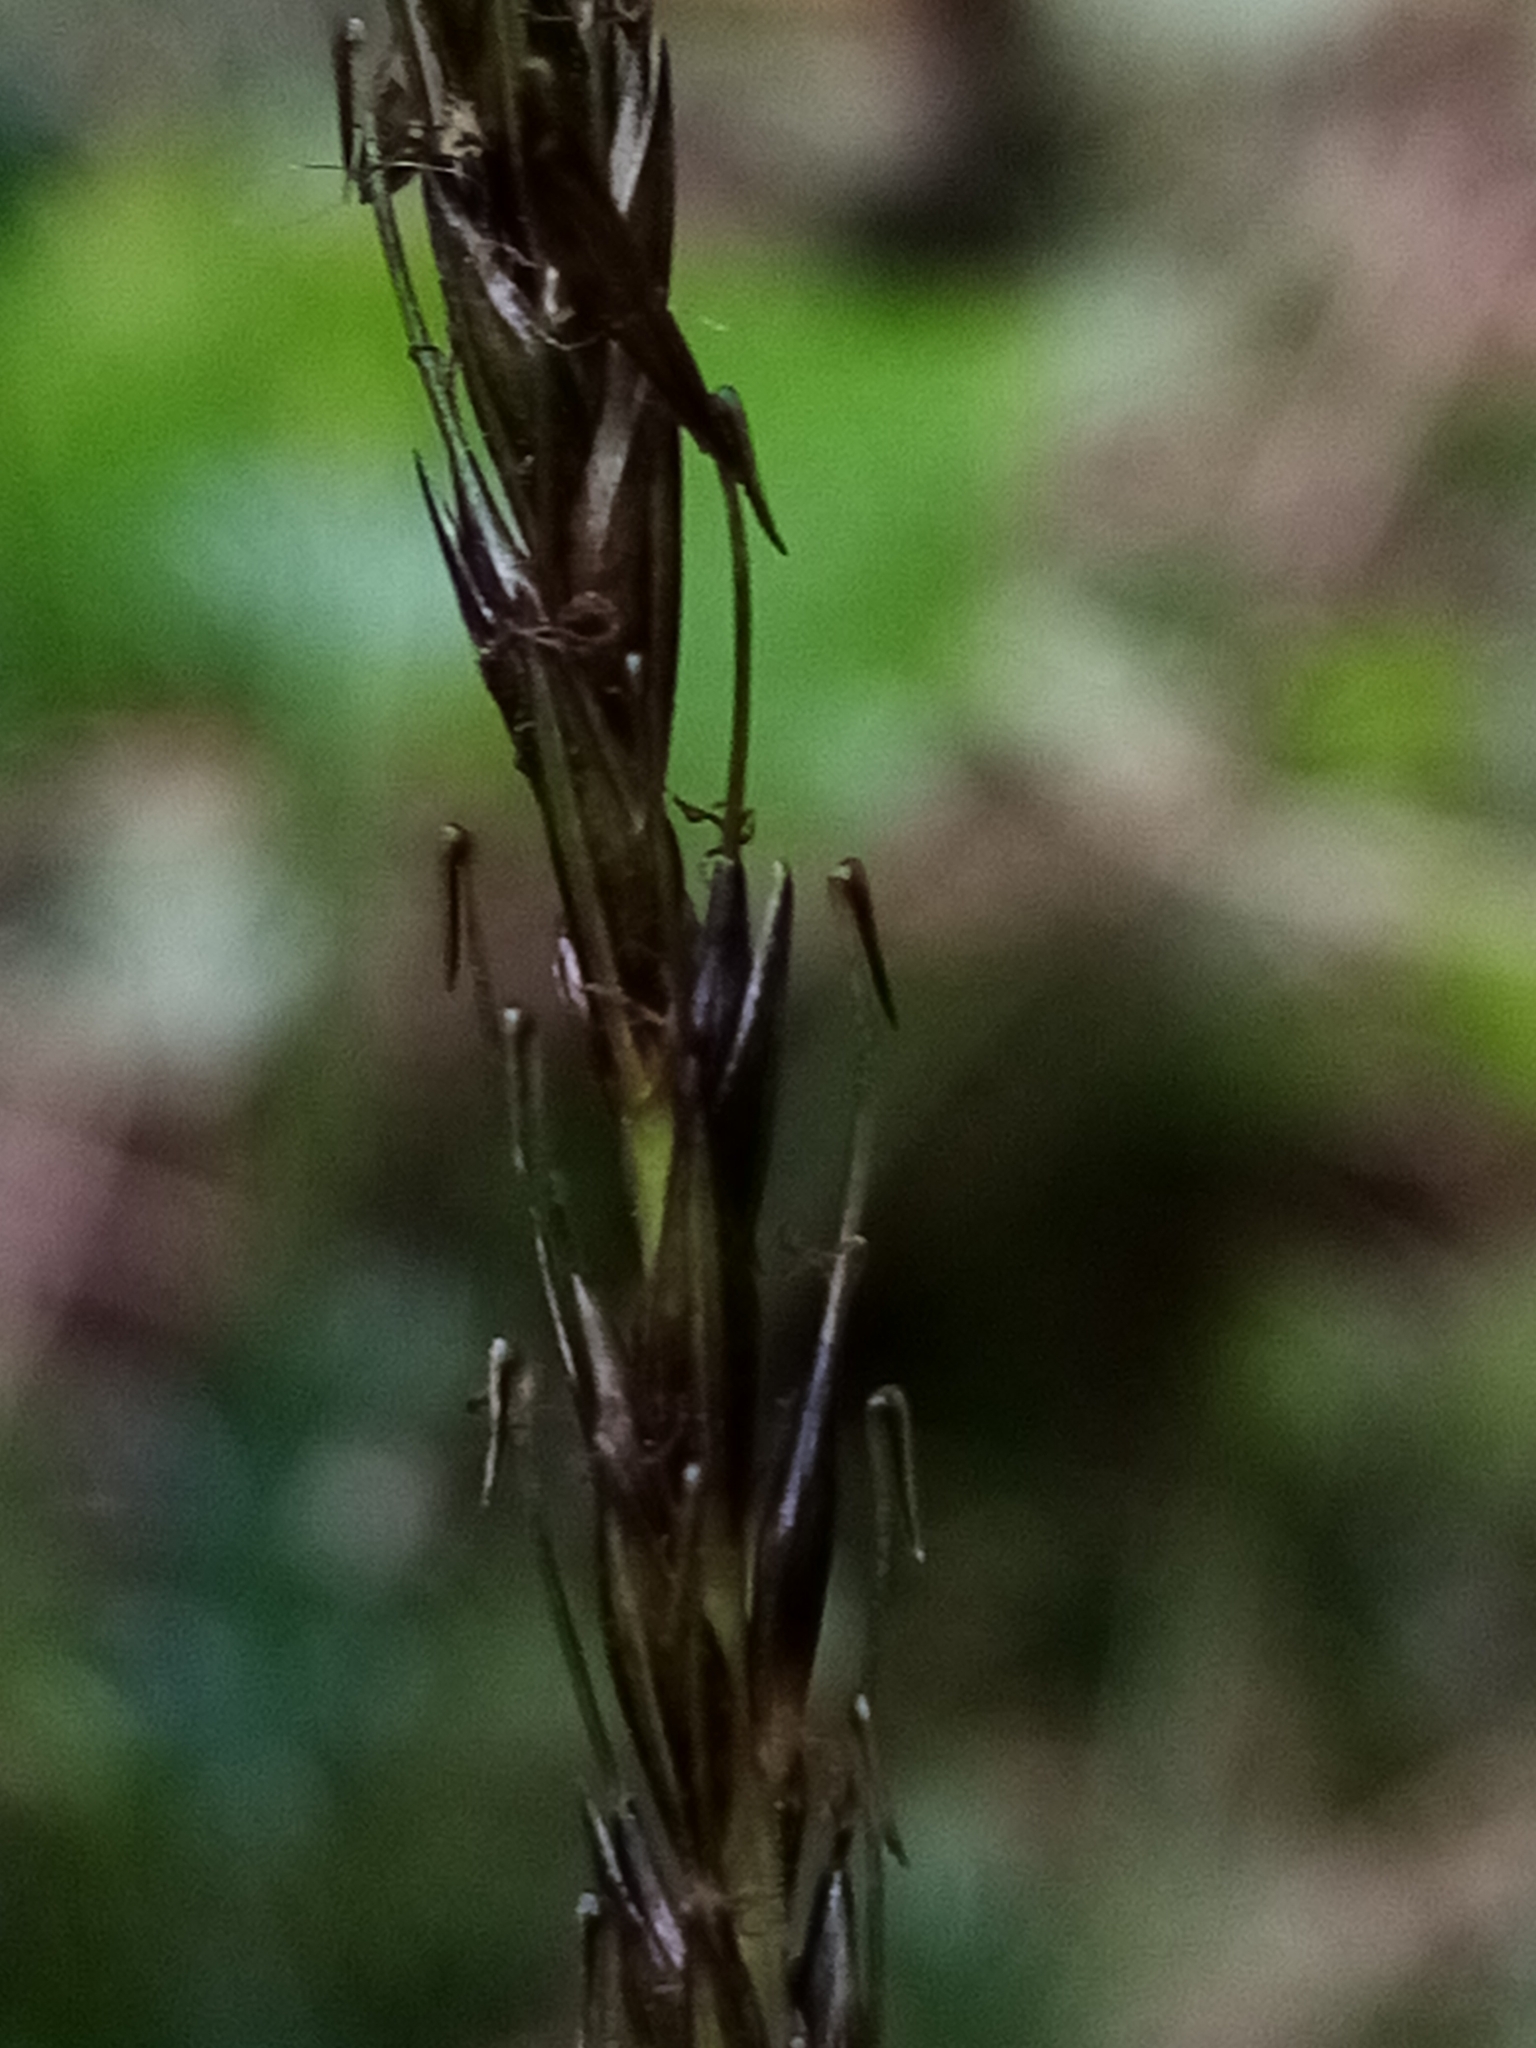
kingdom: Plantae
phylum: Tracheophyta
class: Liliopsida
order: Poales
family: Cyperaceae
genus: Carex
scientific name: Carex corynoidea
